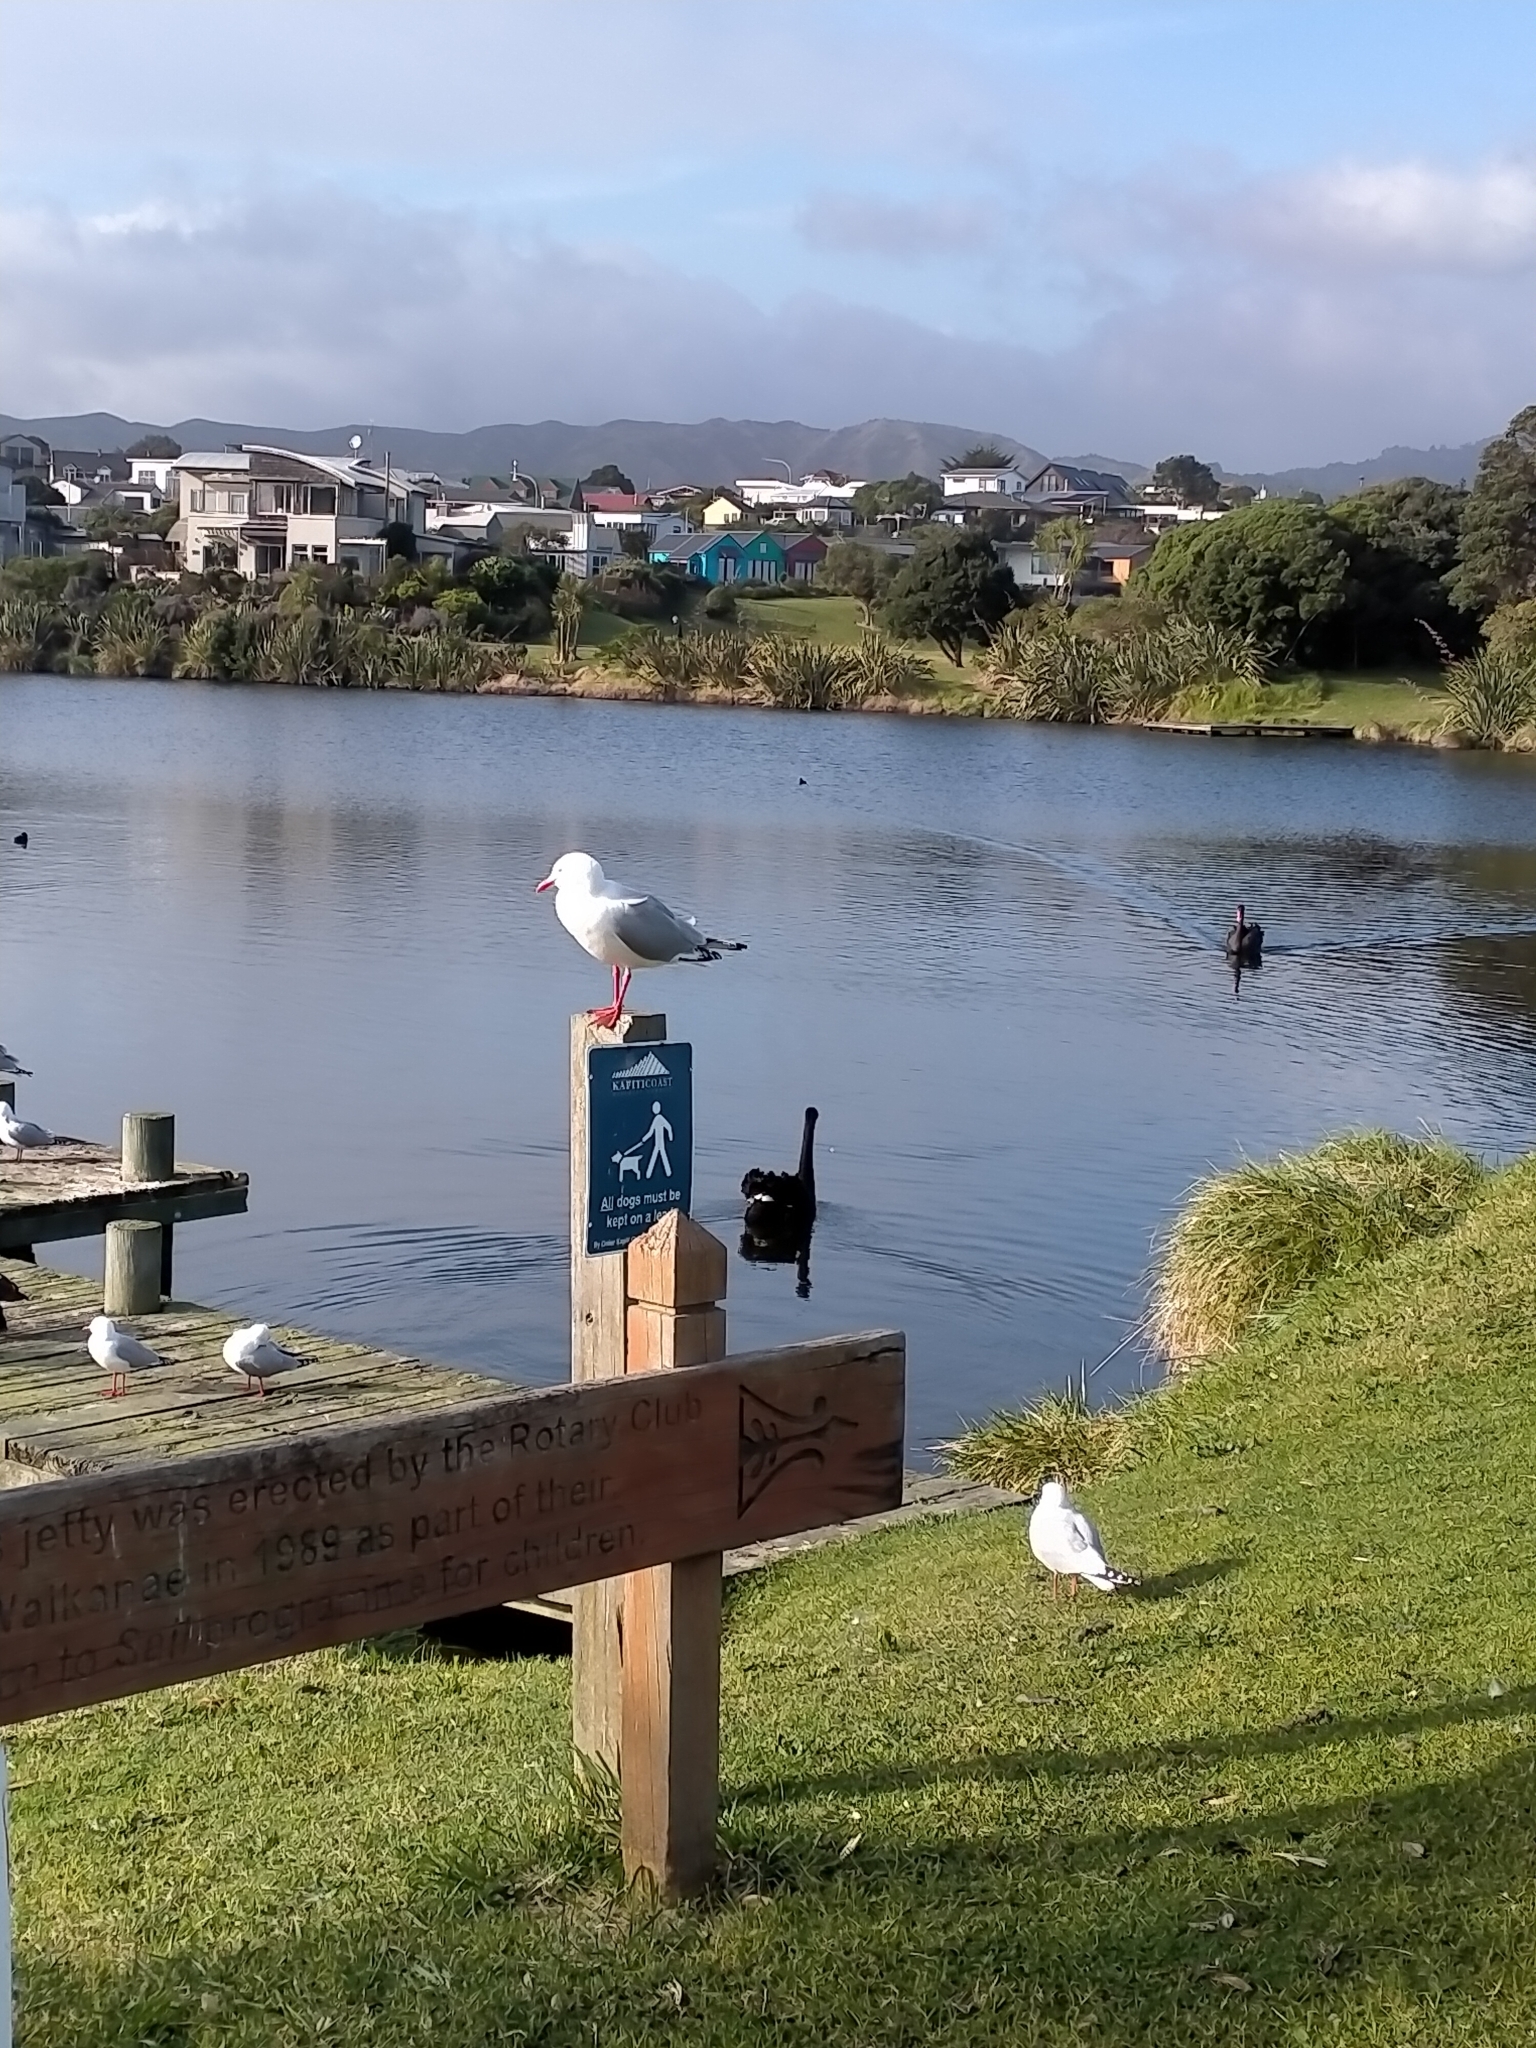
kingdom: Animalia
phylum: Chordata
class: Aves
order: Charadriiformes
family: Laridae
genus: Chroicocephalus
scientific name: Chroicocephalus novaehollandiae
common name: Silver gull
